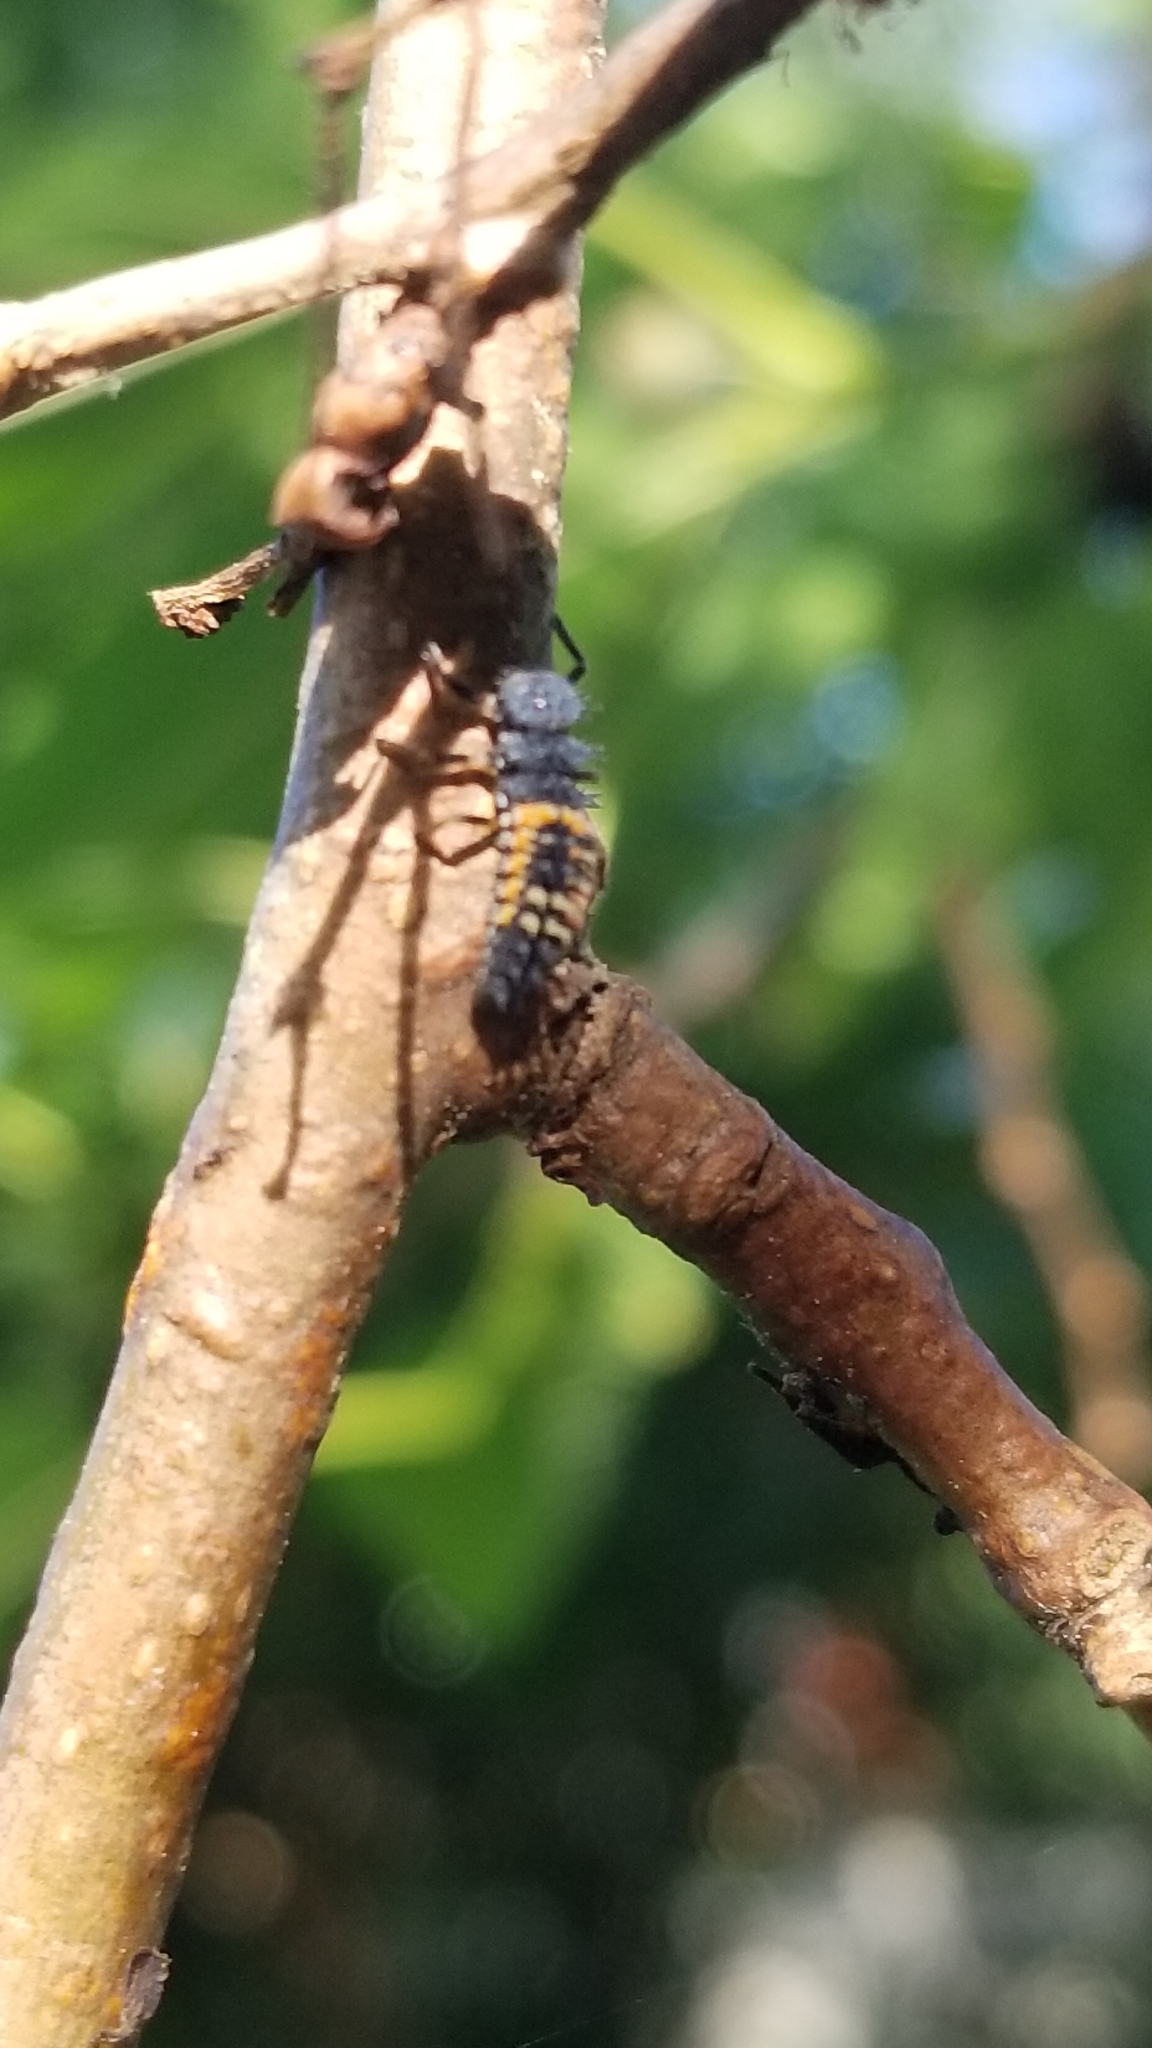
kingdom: Animalia
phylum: Arthropoda
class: Insecta
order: Coleoptera
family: Coccinellidae
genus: Harmonia
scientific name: Harmonia axyridis
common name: Harlequin ladybird
